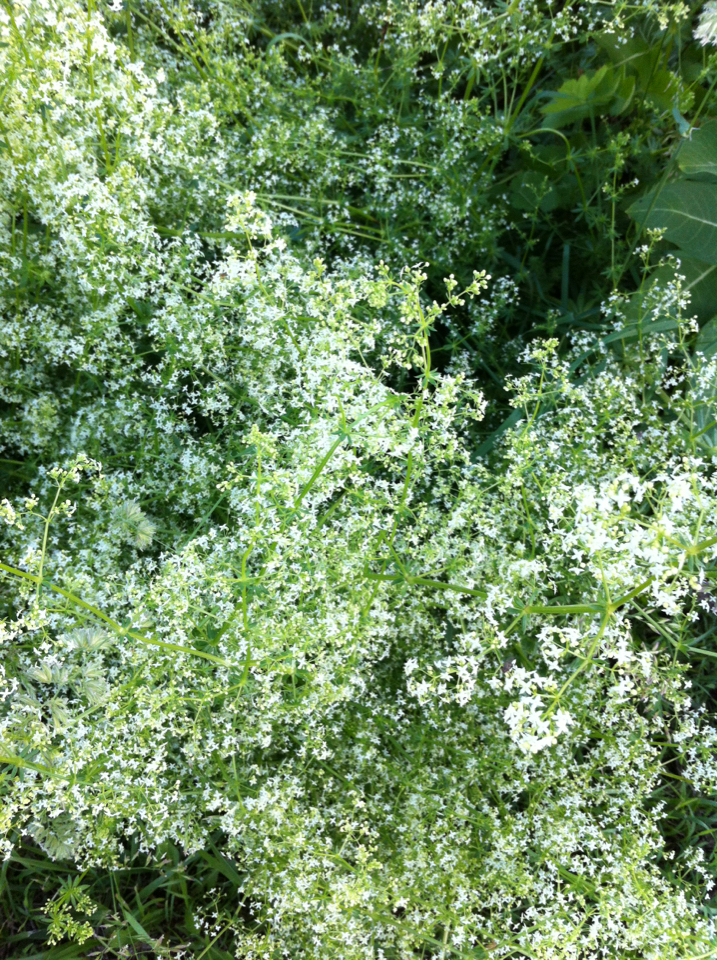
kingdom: Plantae
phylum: Tracheophyta
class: Magnoliopsida
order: Gentianales
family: Rubiaceae
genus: Galium
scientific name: Galium mollugo
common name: Hedge bedstraw
